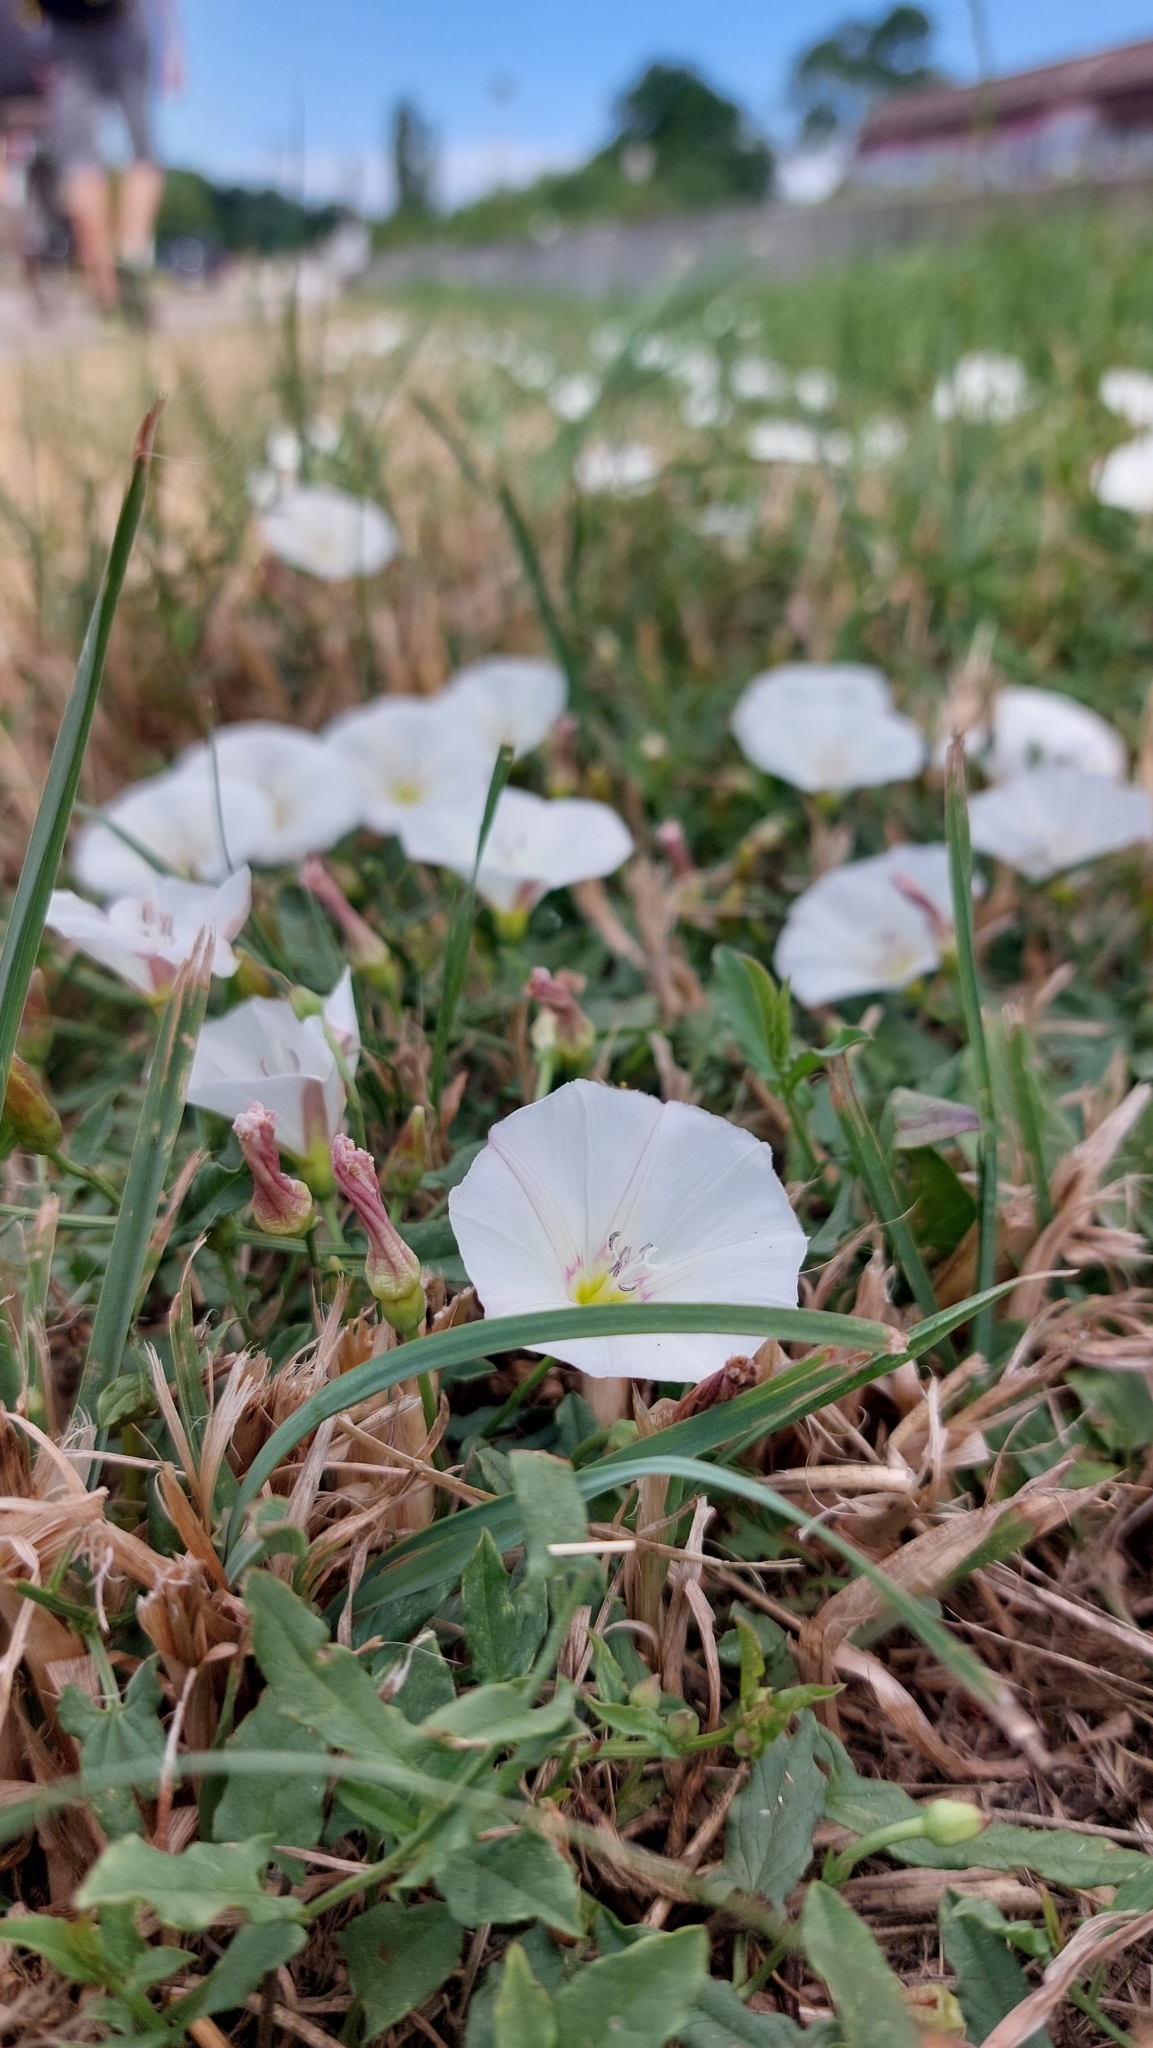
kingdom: Plantae
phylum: Tracheophyta
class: Magnoliopsida
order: Solanales
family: Convolvulaceae
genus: Convolvulus
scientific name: Convolvulus arvensis
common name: Field bindweed
